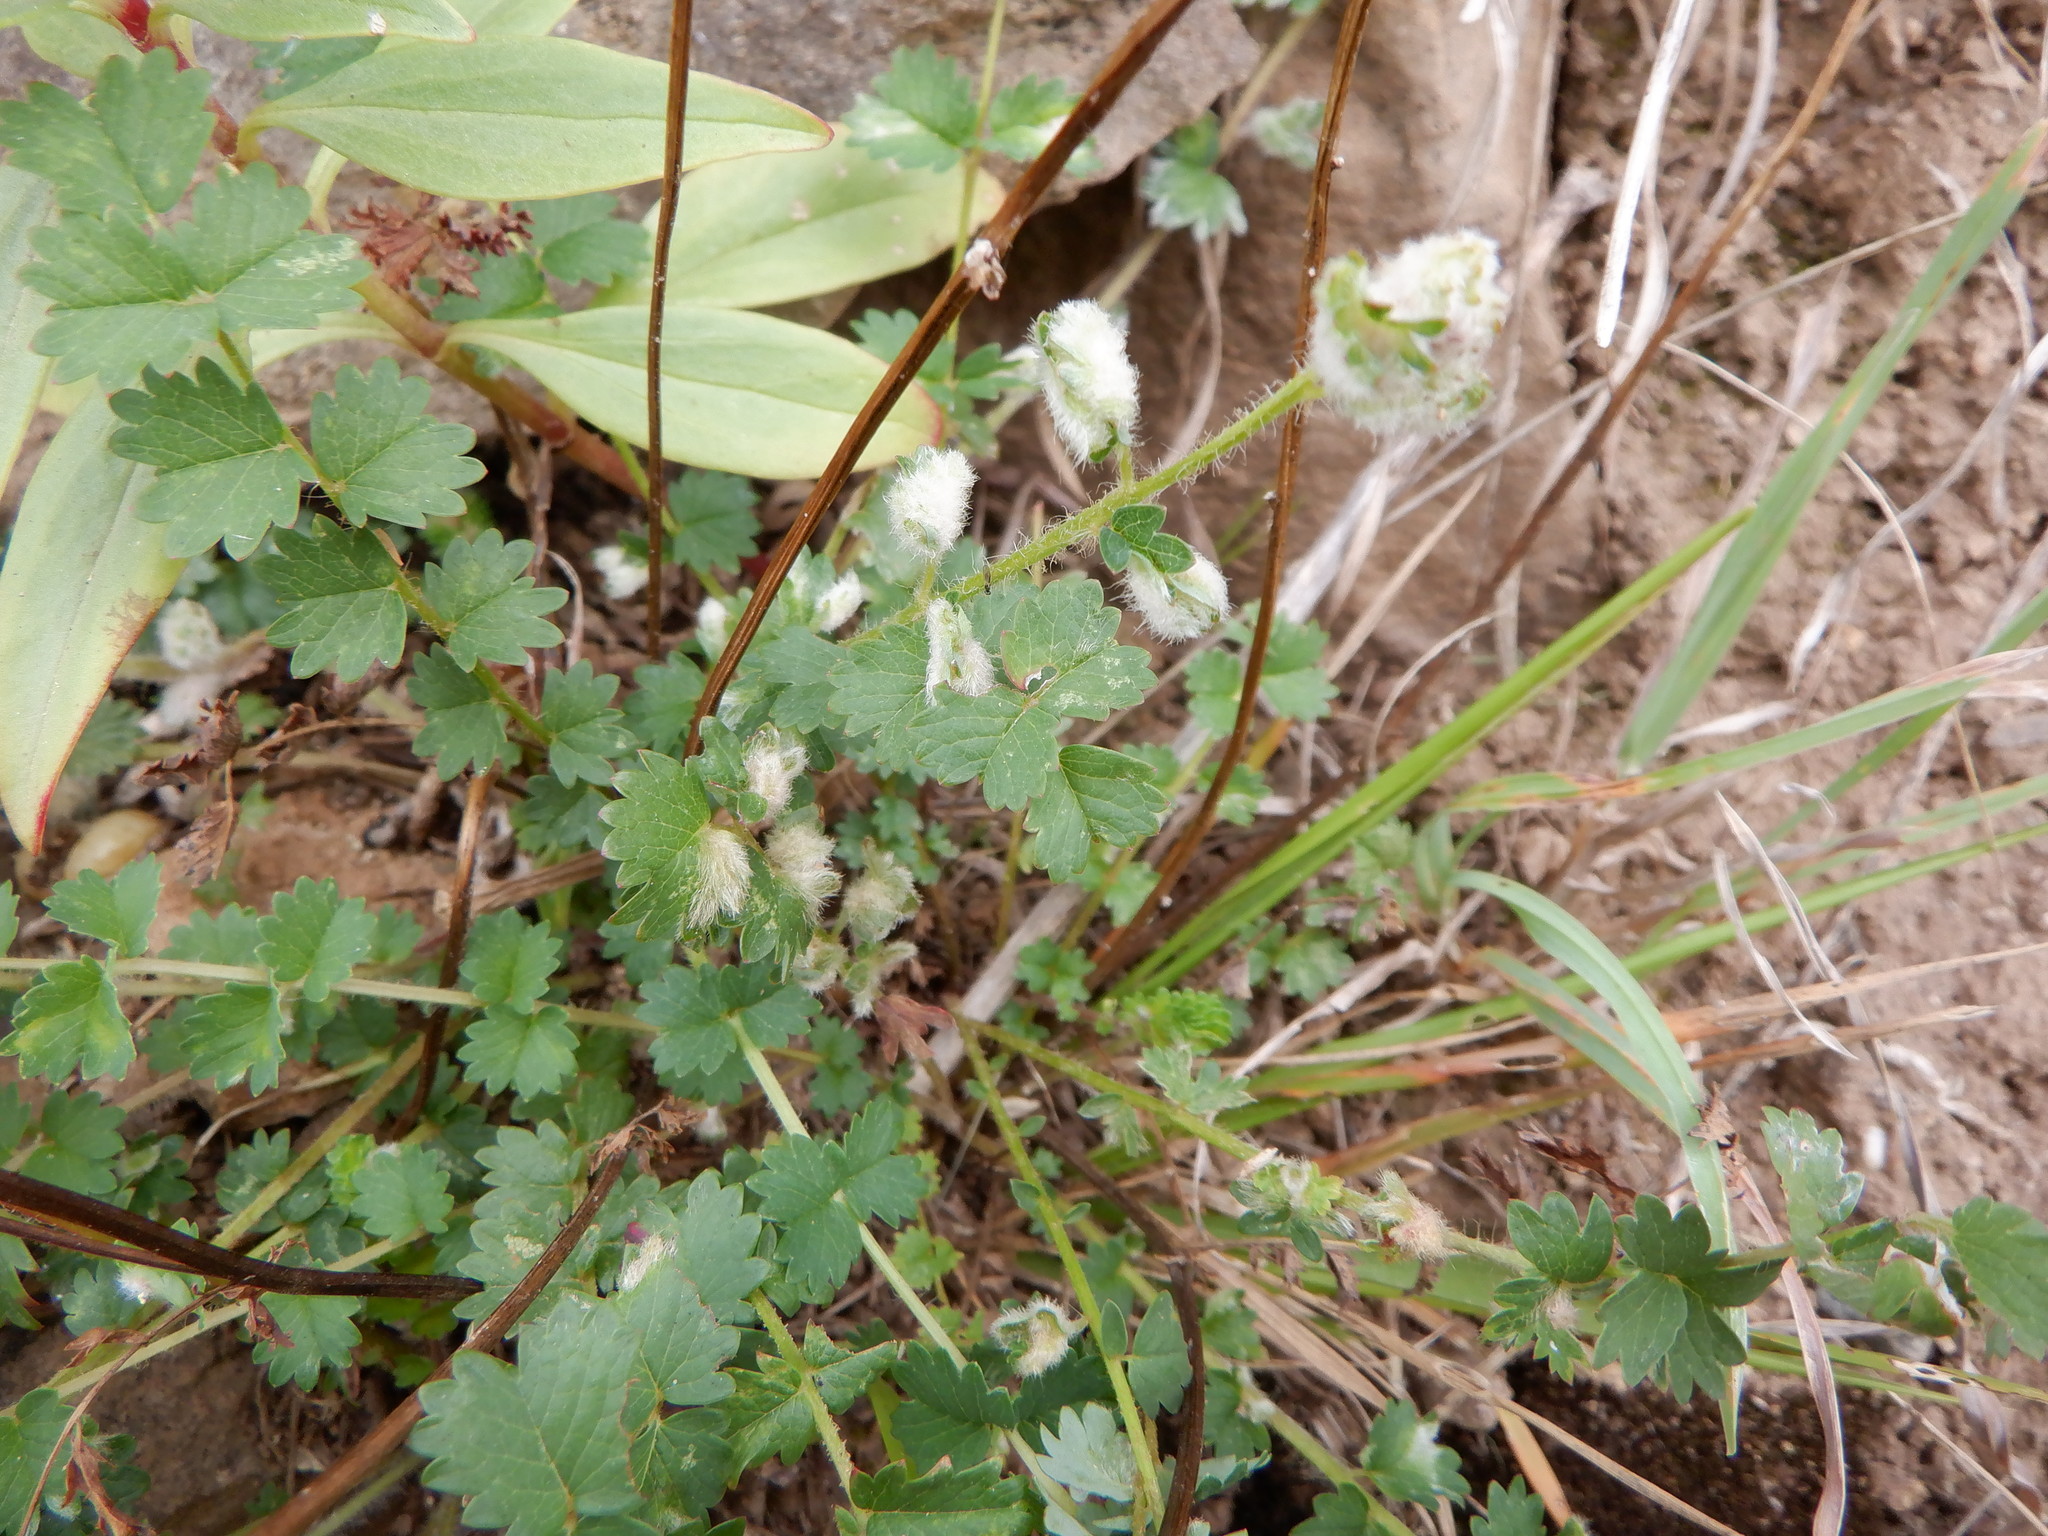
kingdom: Plantae
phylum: Tracheophyta
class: Magnoliopsida
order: Rosales
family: Rosaceae
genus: Poterium
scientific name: Poterium sanguisorba
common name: Salad burnet
